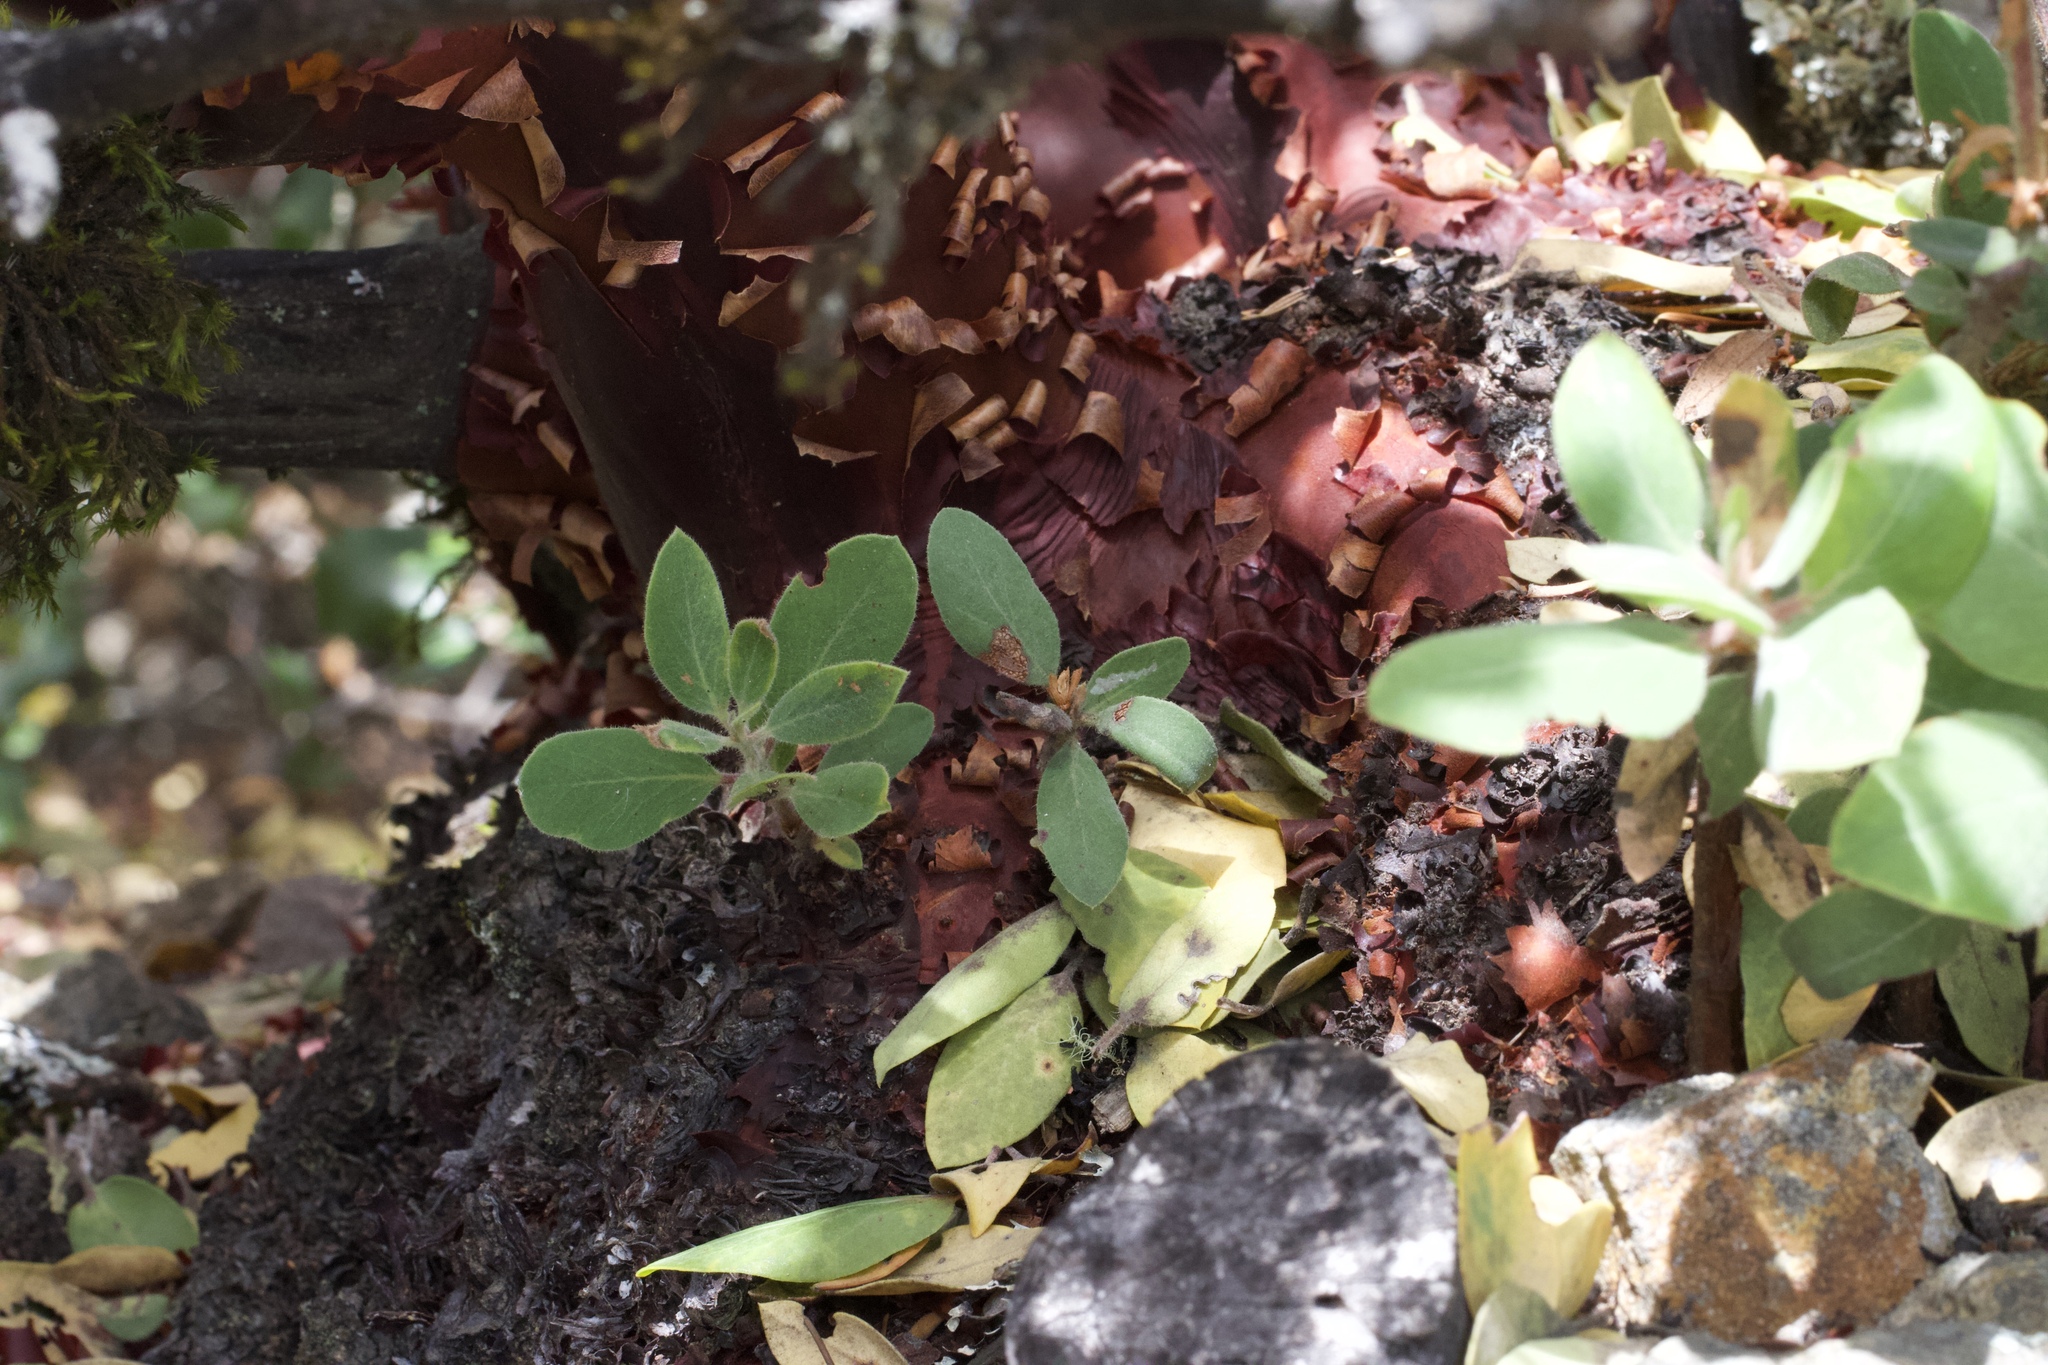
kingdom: Plantae
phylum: Tracheophyta
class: Magnoliopsida
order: Ericales
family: Ericaceae
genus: Arctostaphylos
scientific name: Arctostaphylos glandulosa
